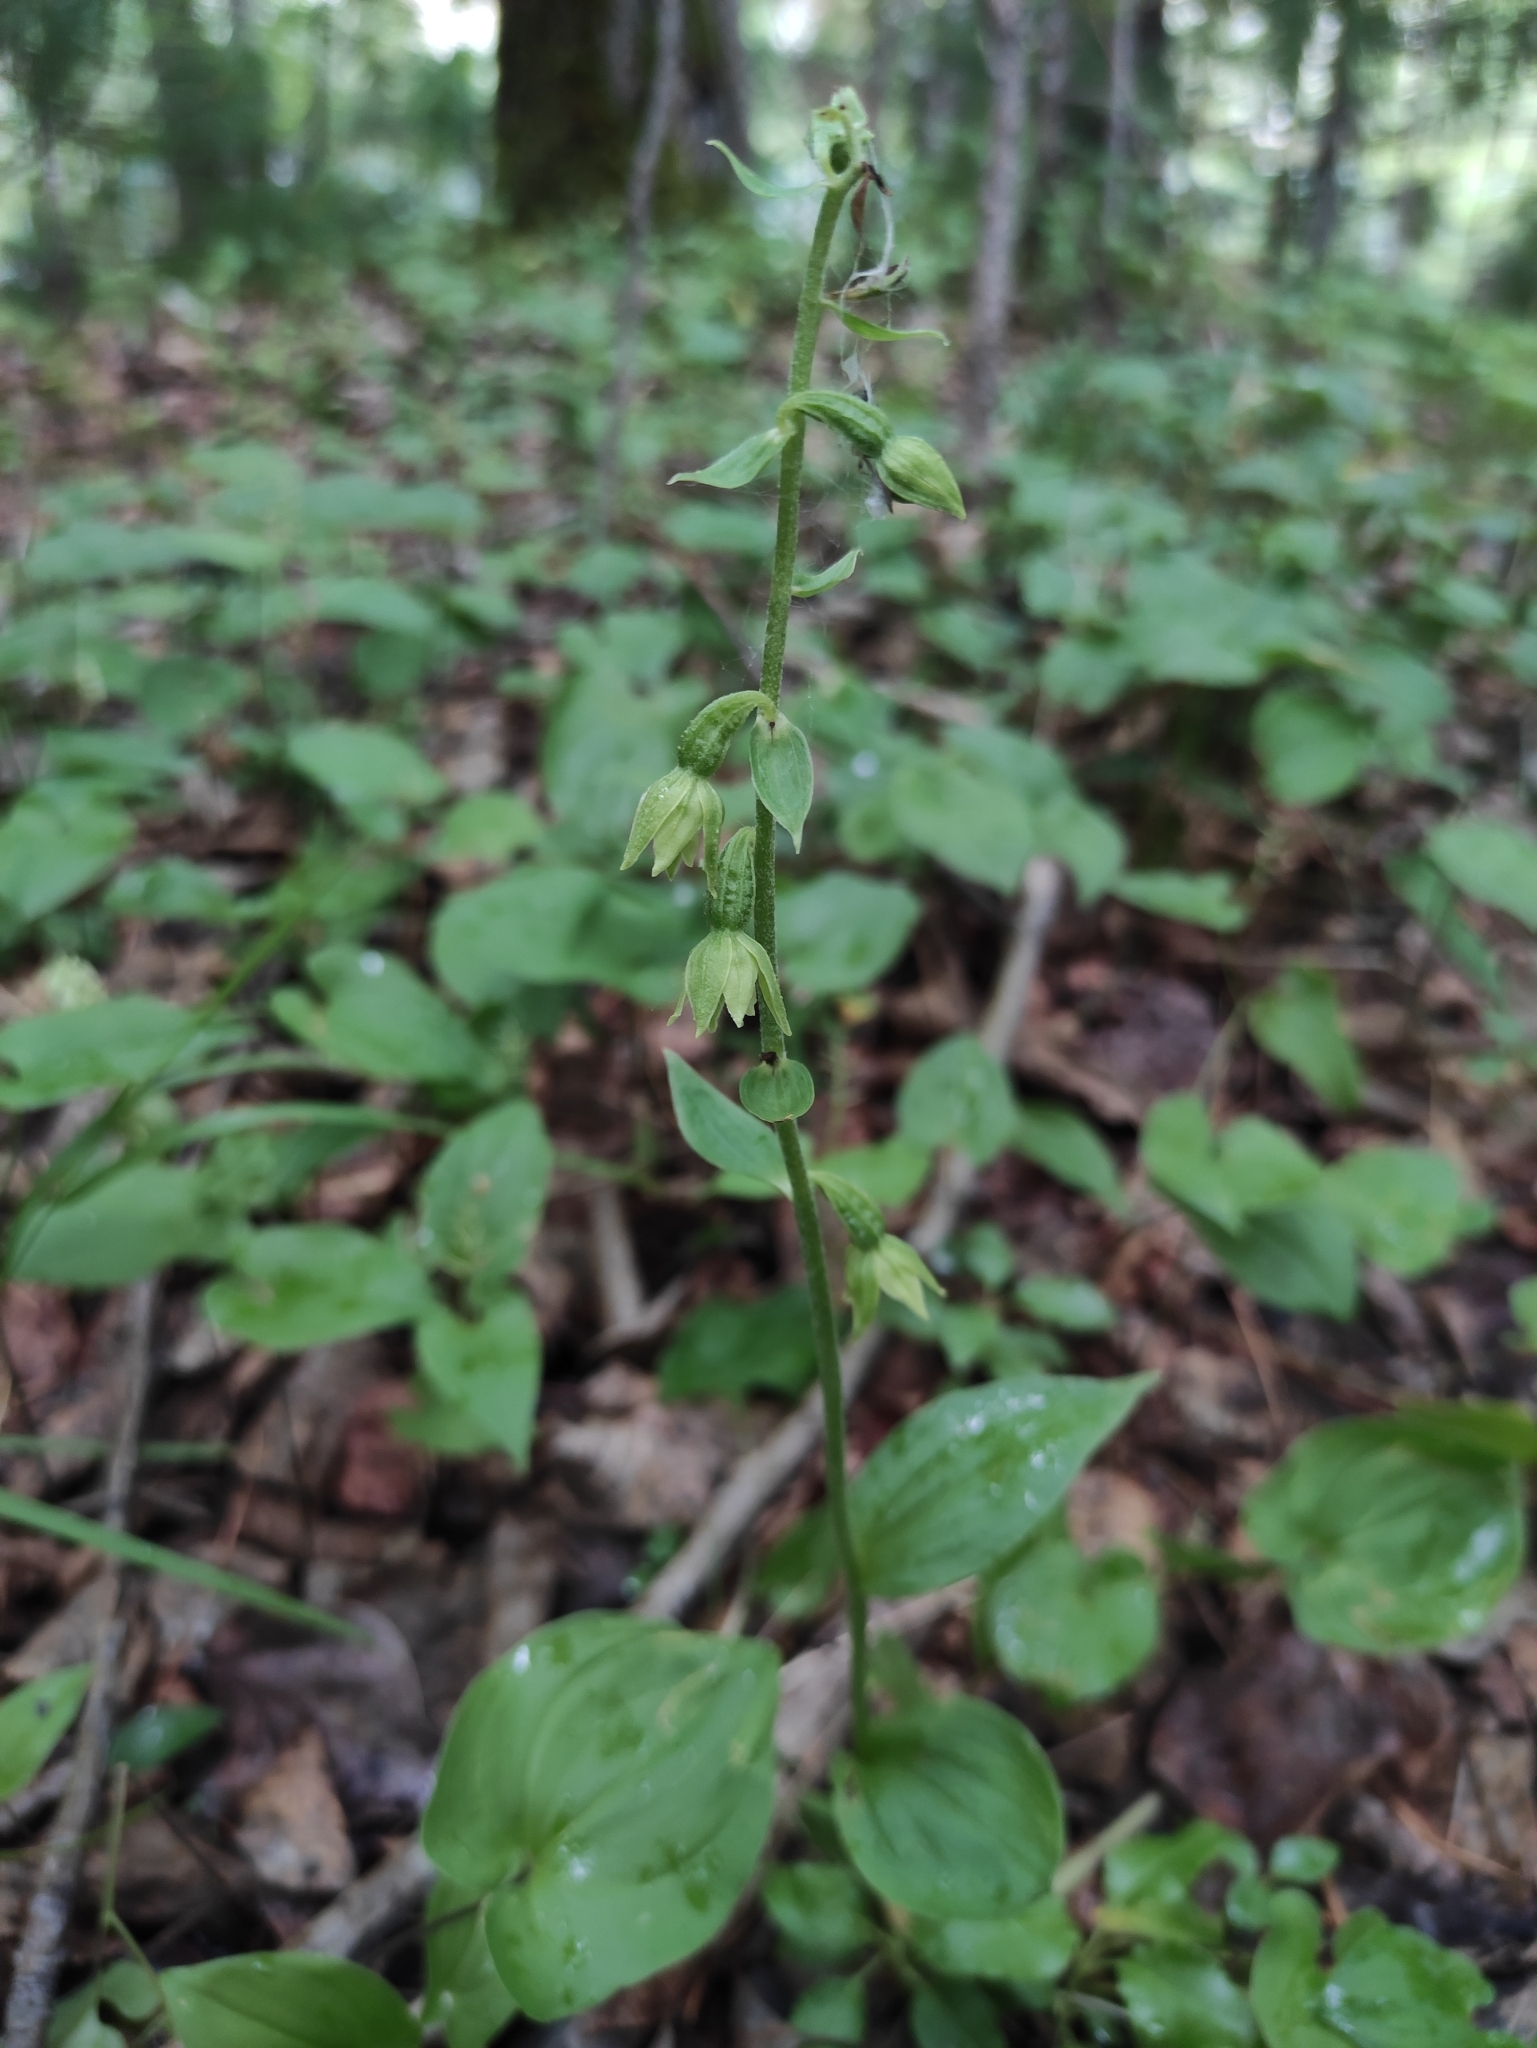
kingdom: Plantae
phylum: Tracheophyta
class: Liliopsida
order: Asparagales
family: Orchidaceae
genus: Epipactis
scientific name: Epipactis helleborine
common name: Broad-leaved helleborine
